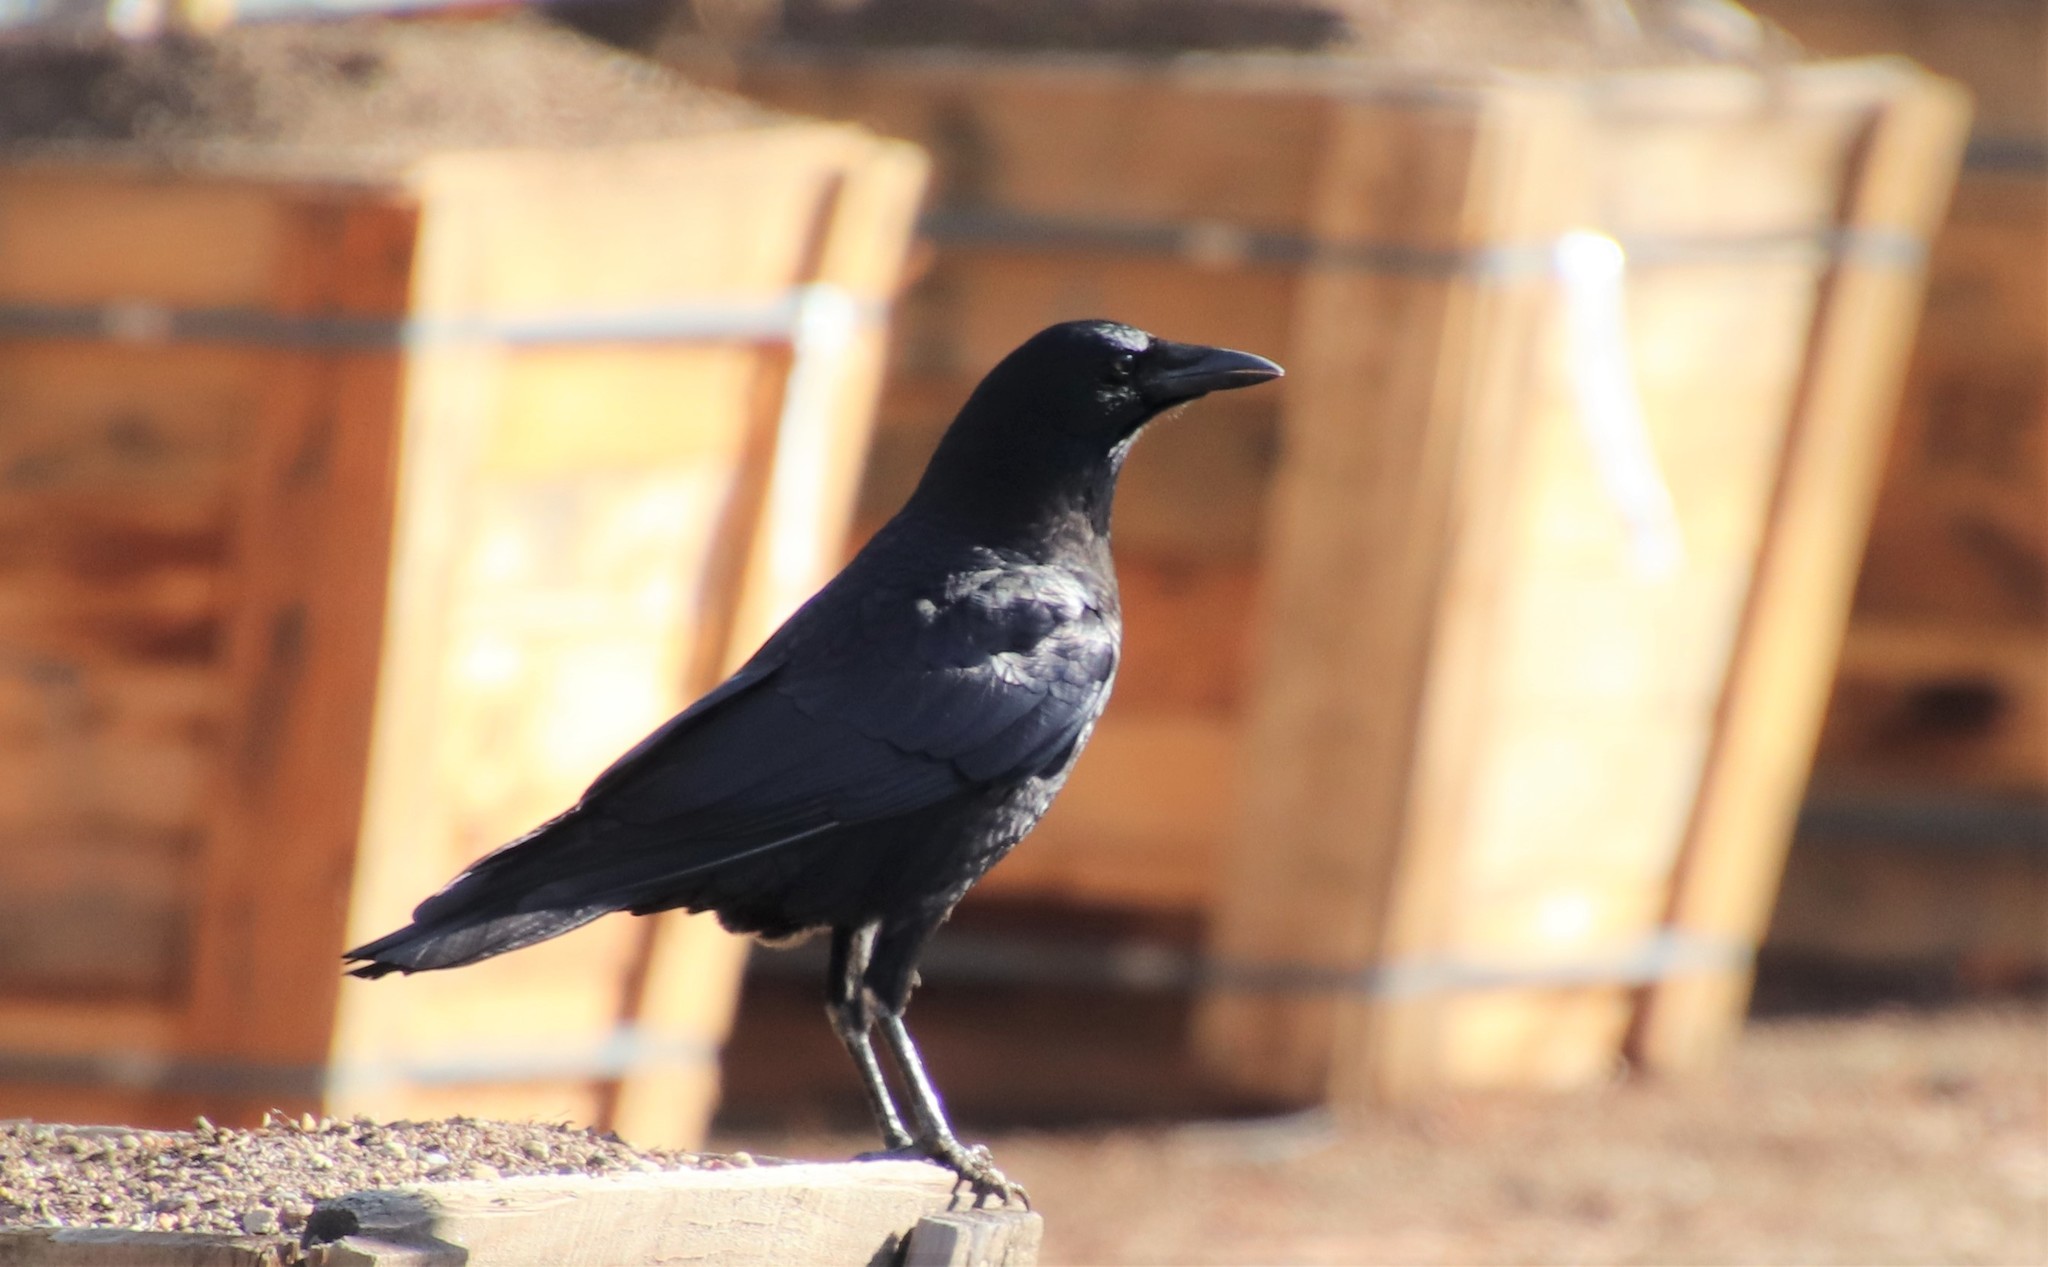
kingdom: Animalia
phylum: Chordata
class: Aves
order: Passeriformes
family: Corvidae
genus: Corvus
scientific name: Corvus brachyrhynchos
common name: American crow
